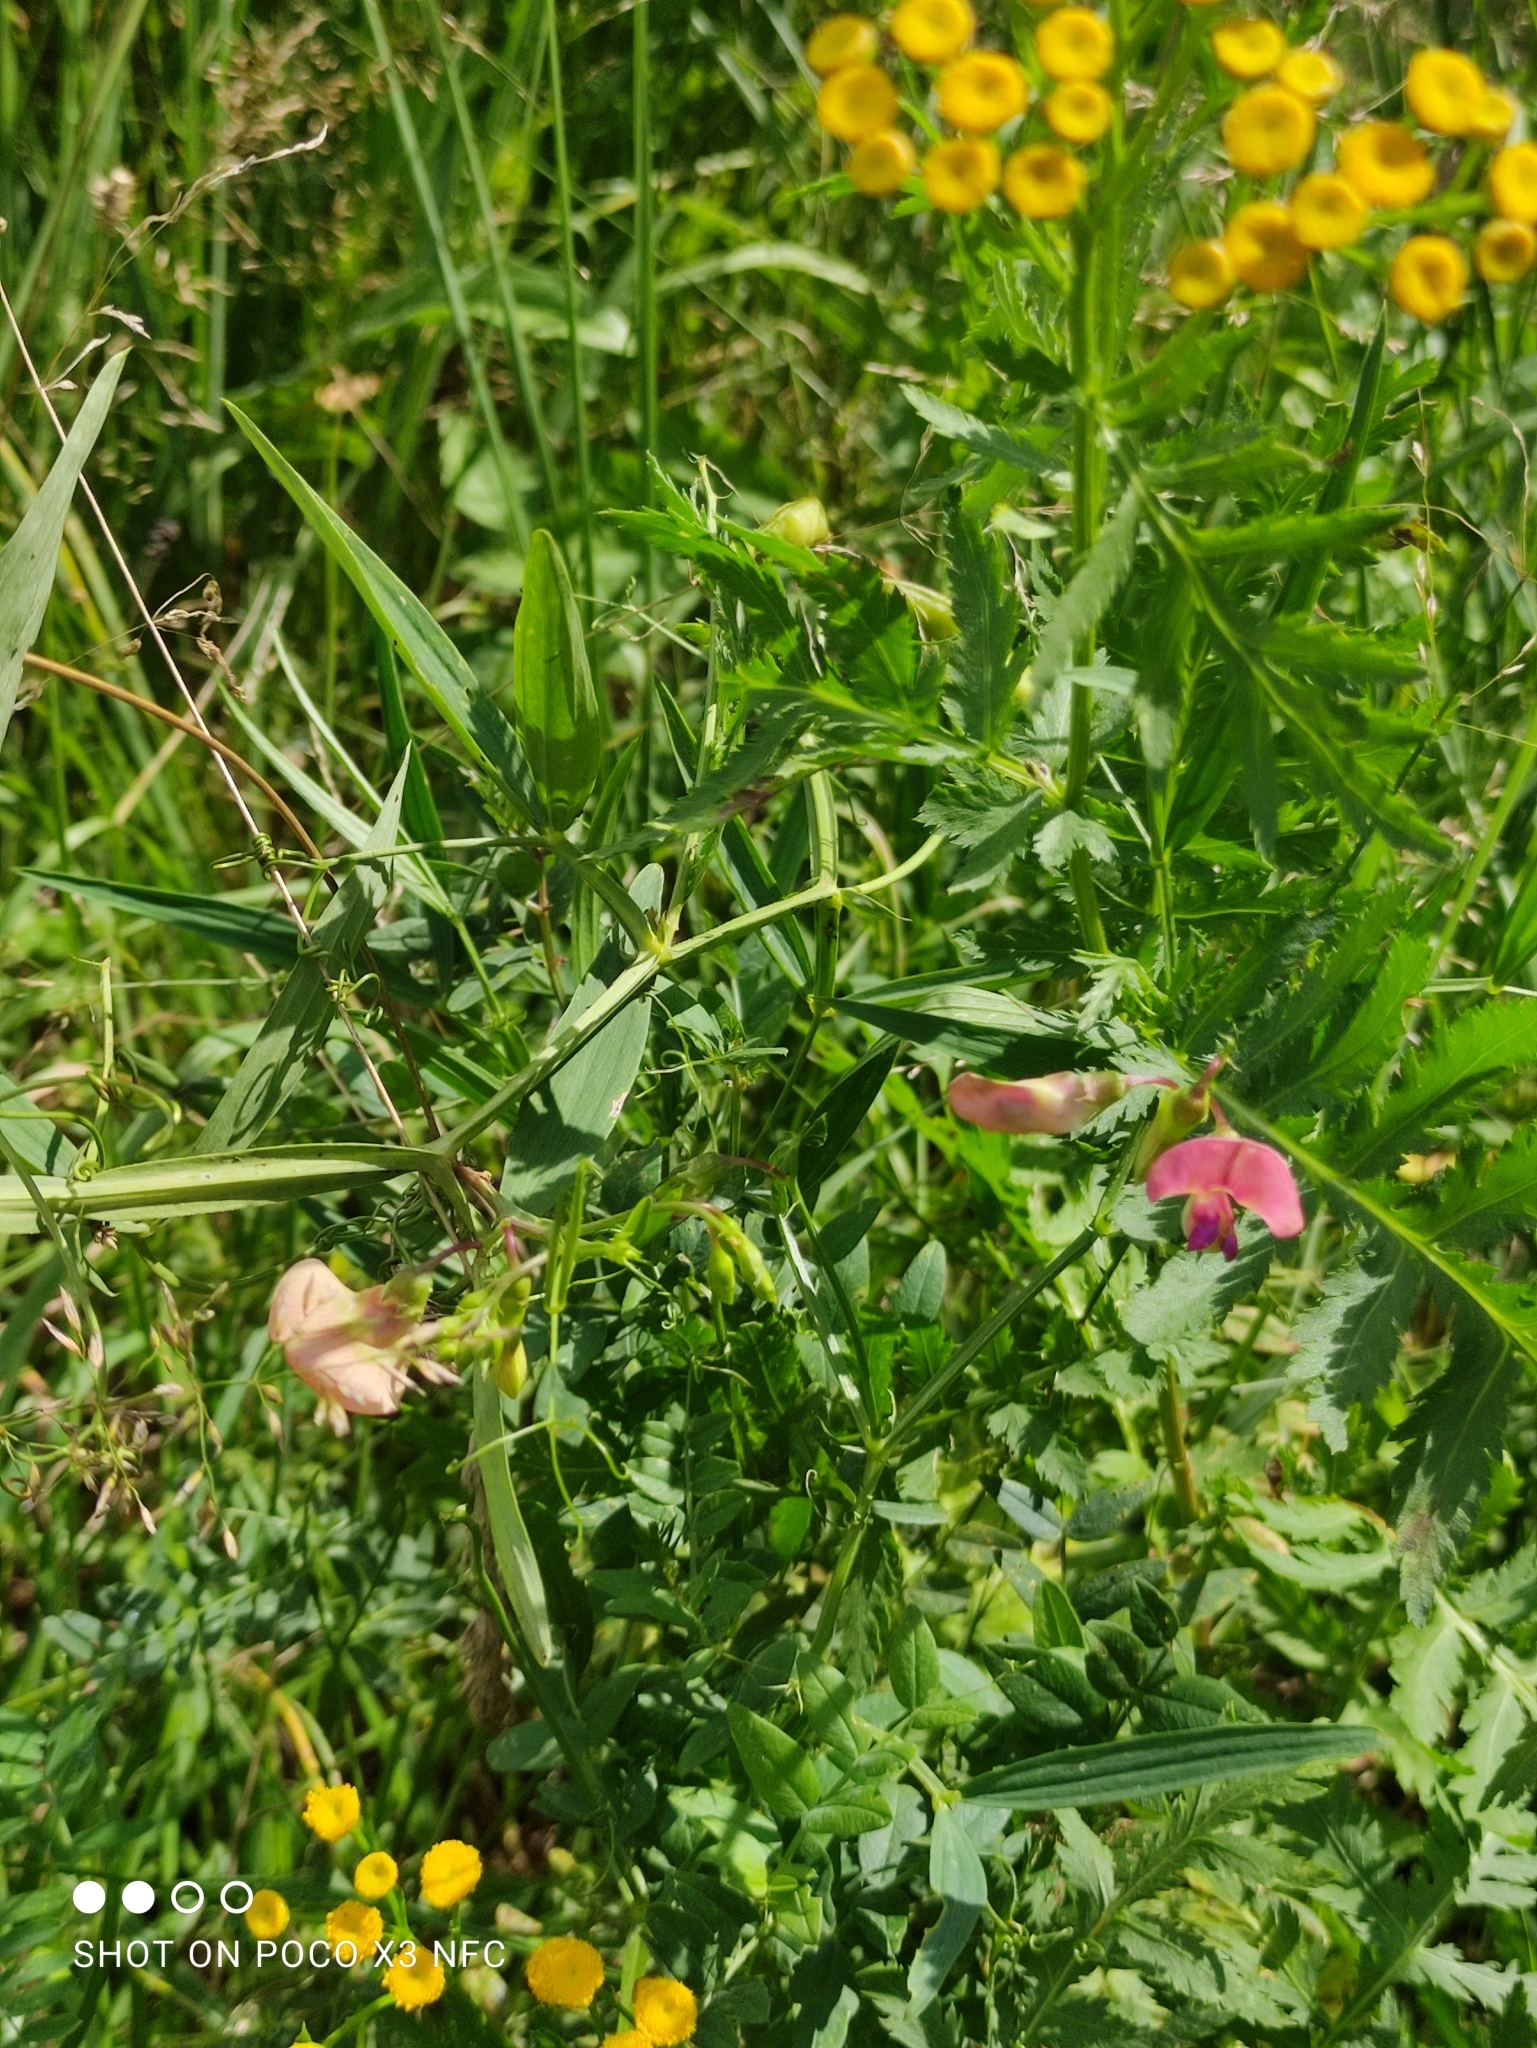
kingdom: Plantae
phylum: Tracheophyta
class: Magnoliopsida
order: Fabales
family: Fabaceae
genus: Lathyrus
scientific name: Lathyrus sylvestris
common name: Flat pea
